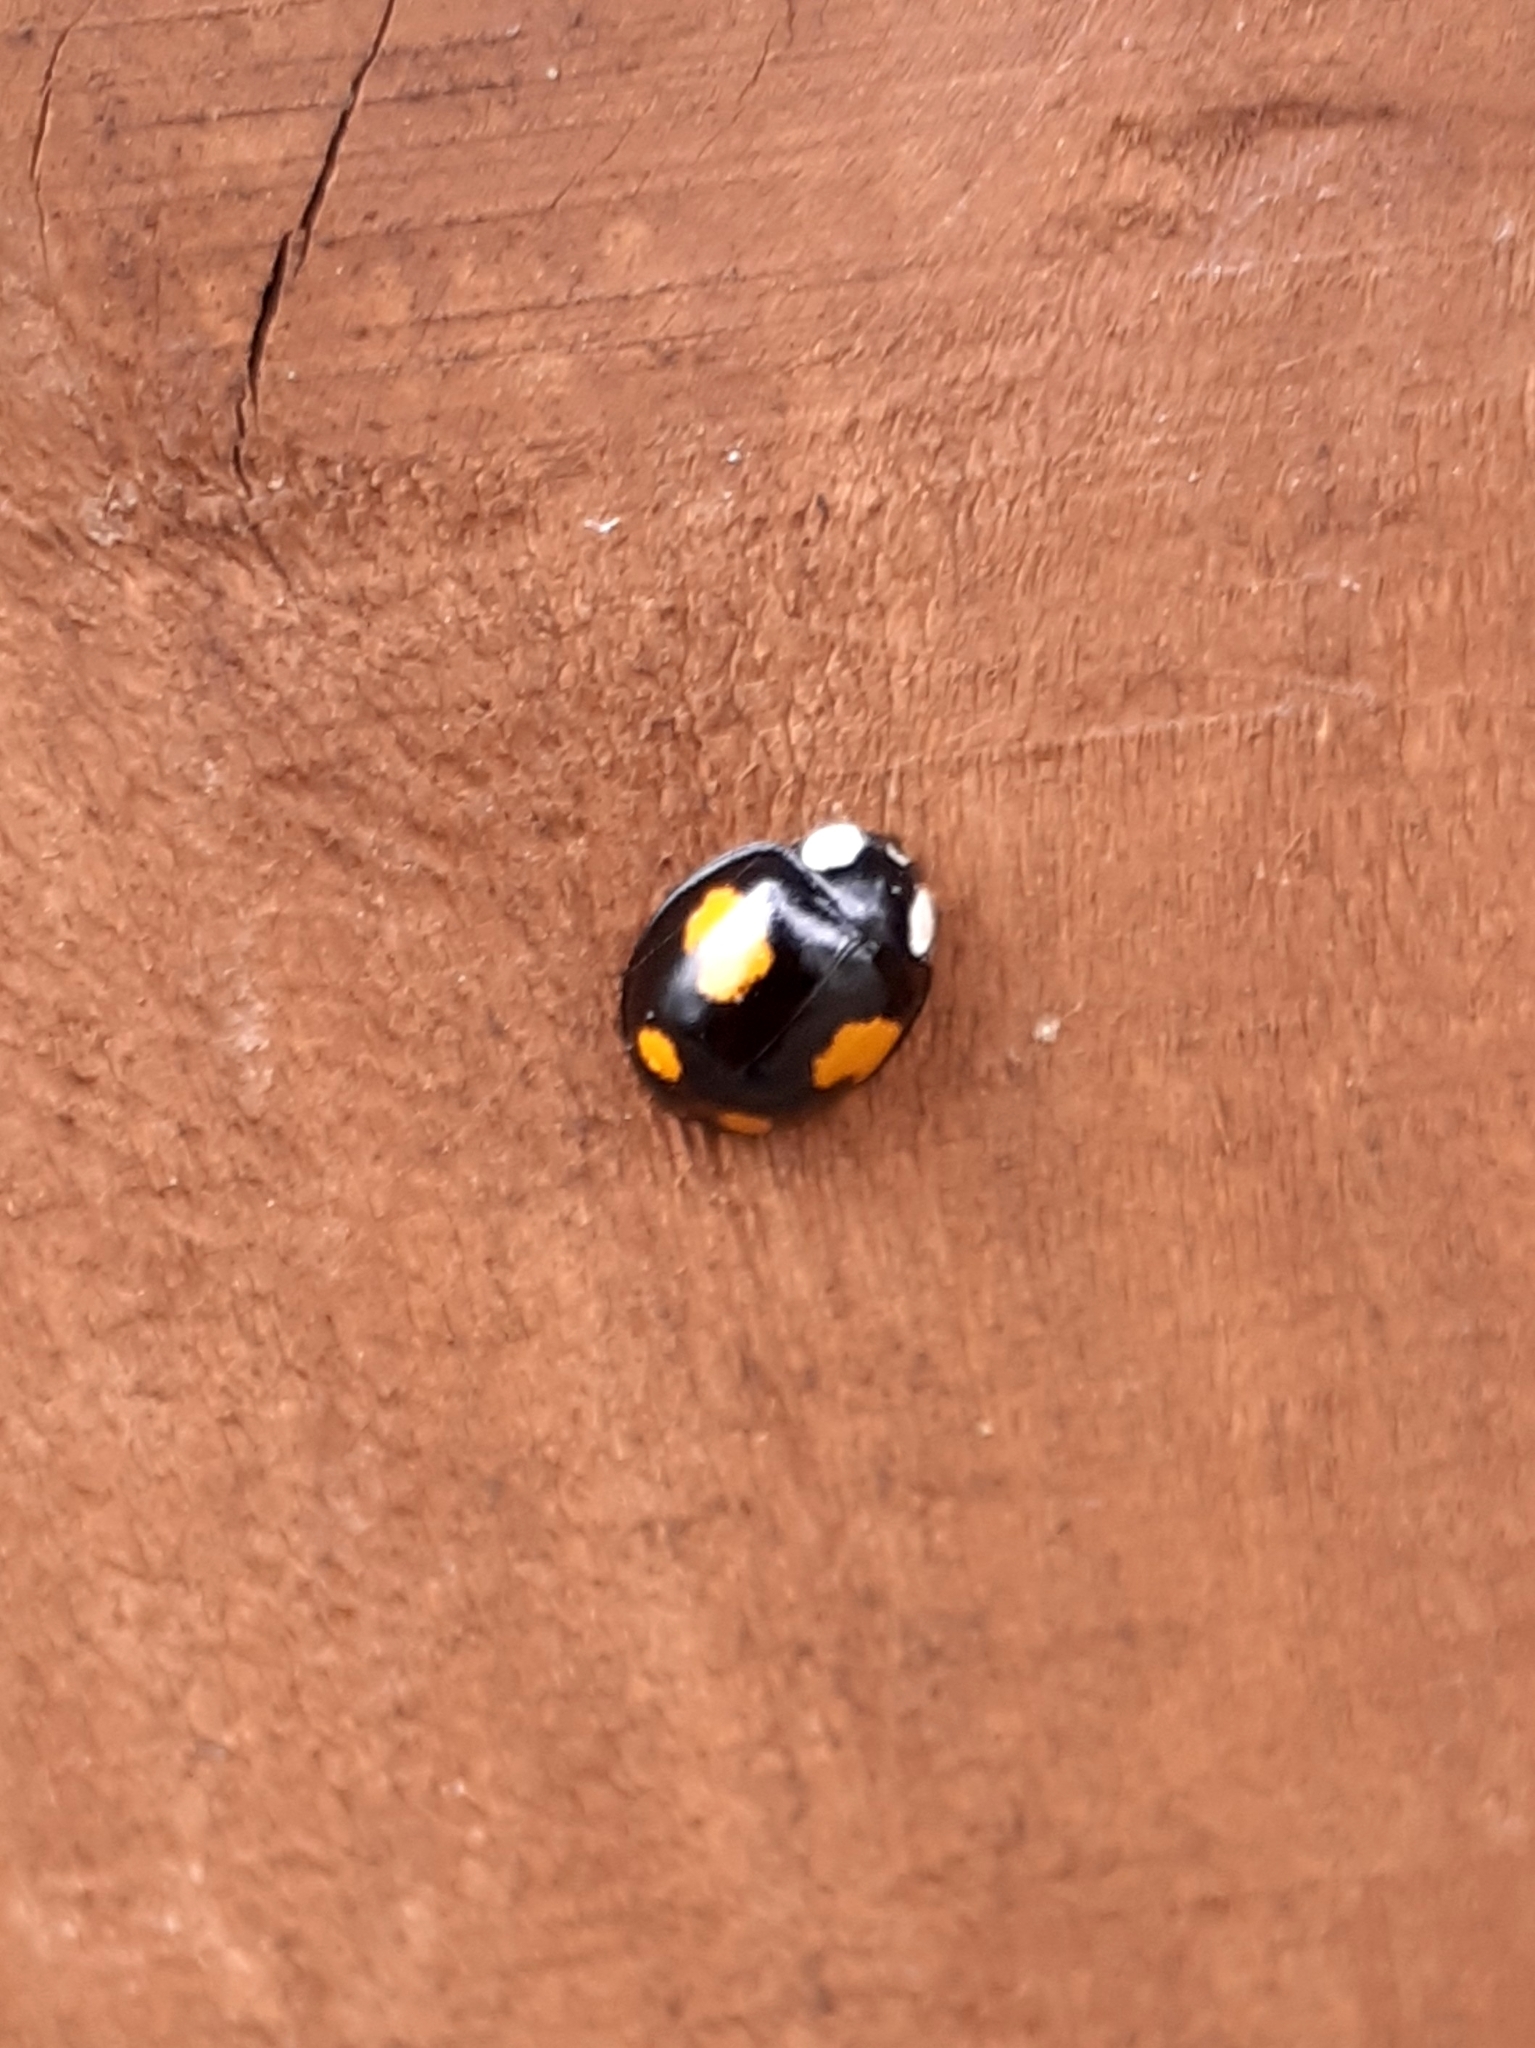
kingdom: Animalia
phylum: Arthropoda
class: Insecta
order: Coleoptera
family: Coccinellidae
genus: Harmonia
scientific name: Harmonia axyridis
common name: Harlequin ladybird
